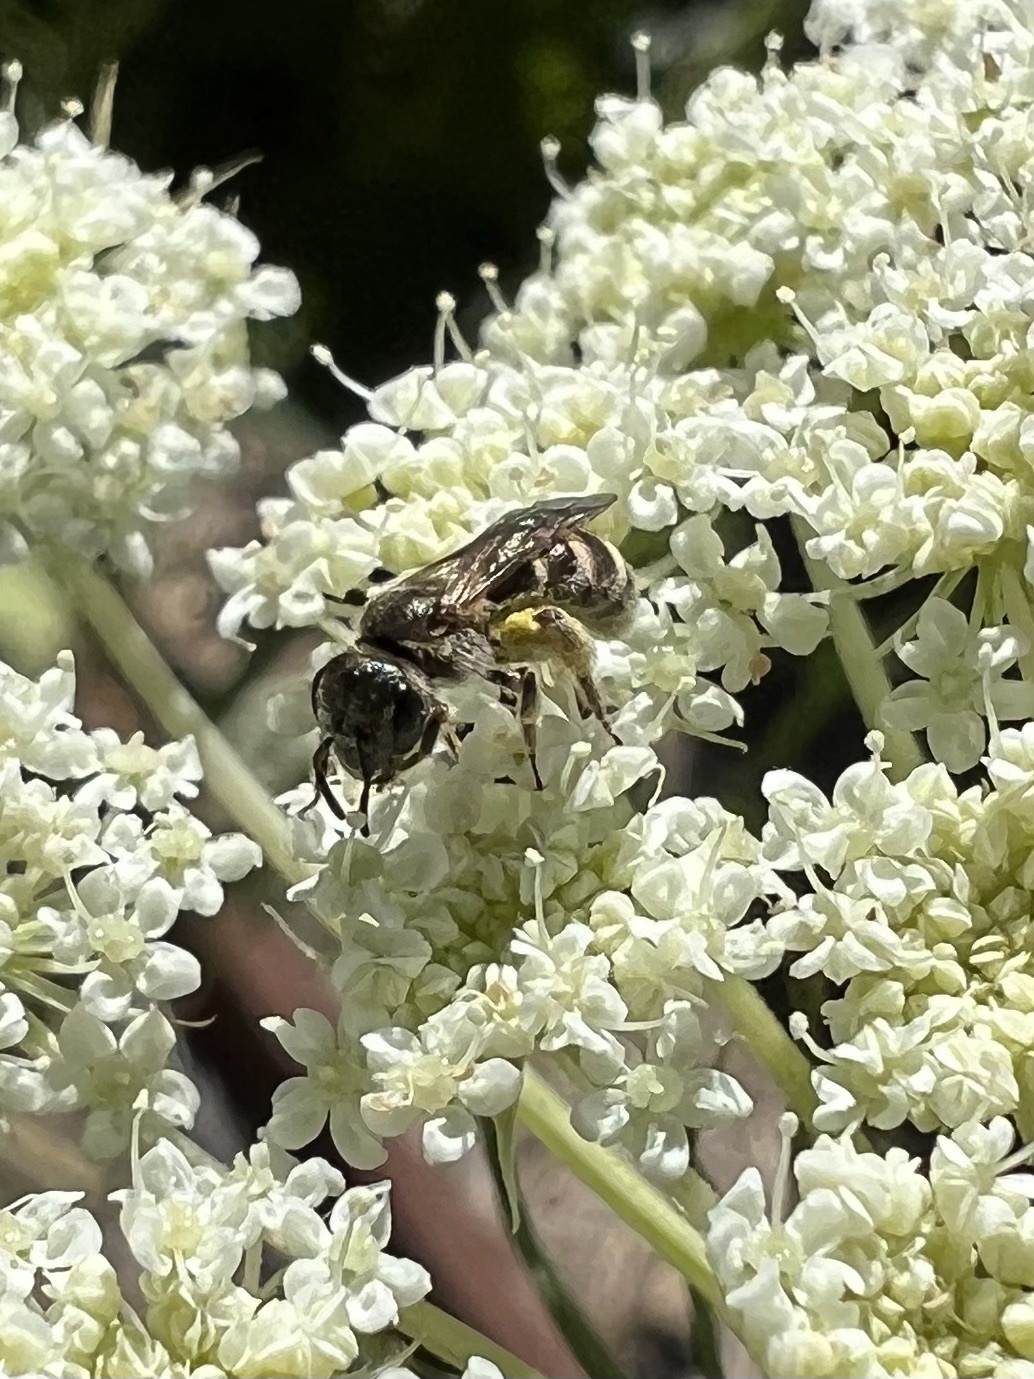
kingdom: Animalia
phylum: Arthropoda
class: Insecta
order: Hymenoptera
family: Halictidae
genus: Halictus
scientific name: Halictus tripartitus
